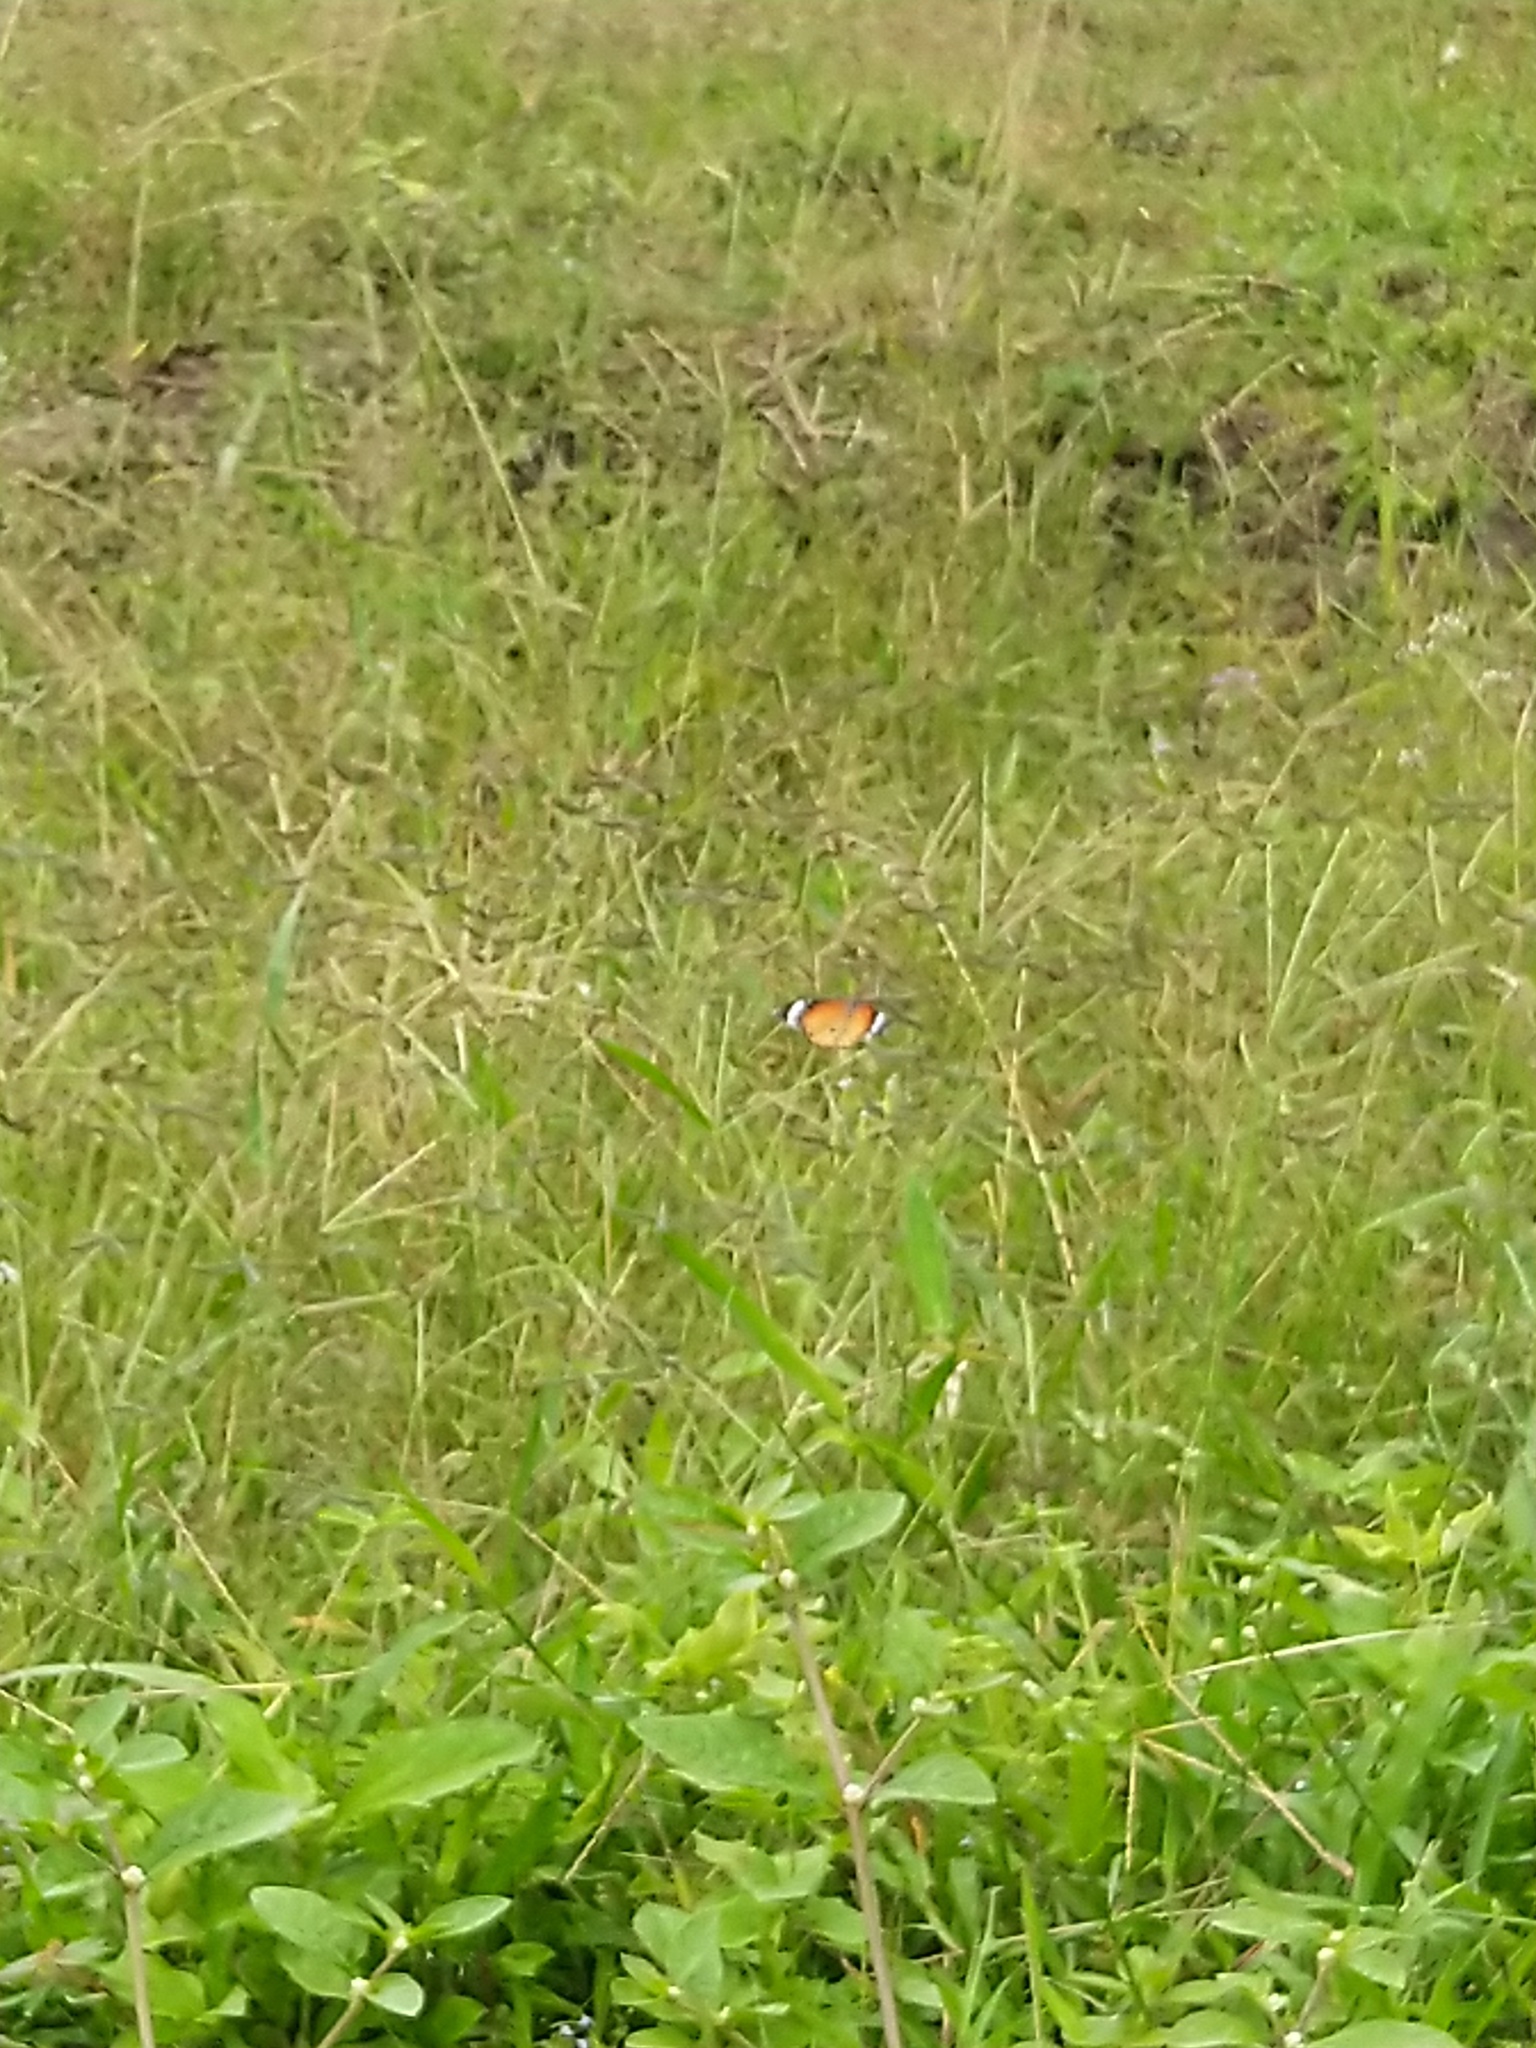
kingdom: Animalia
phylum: Arthropoda
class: Insecta
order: Lepidoptera
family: Nymphalidae
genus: Danaus
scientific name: Danaus chrysippus
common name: Plain tiger
